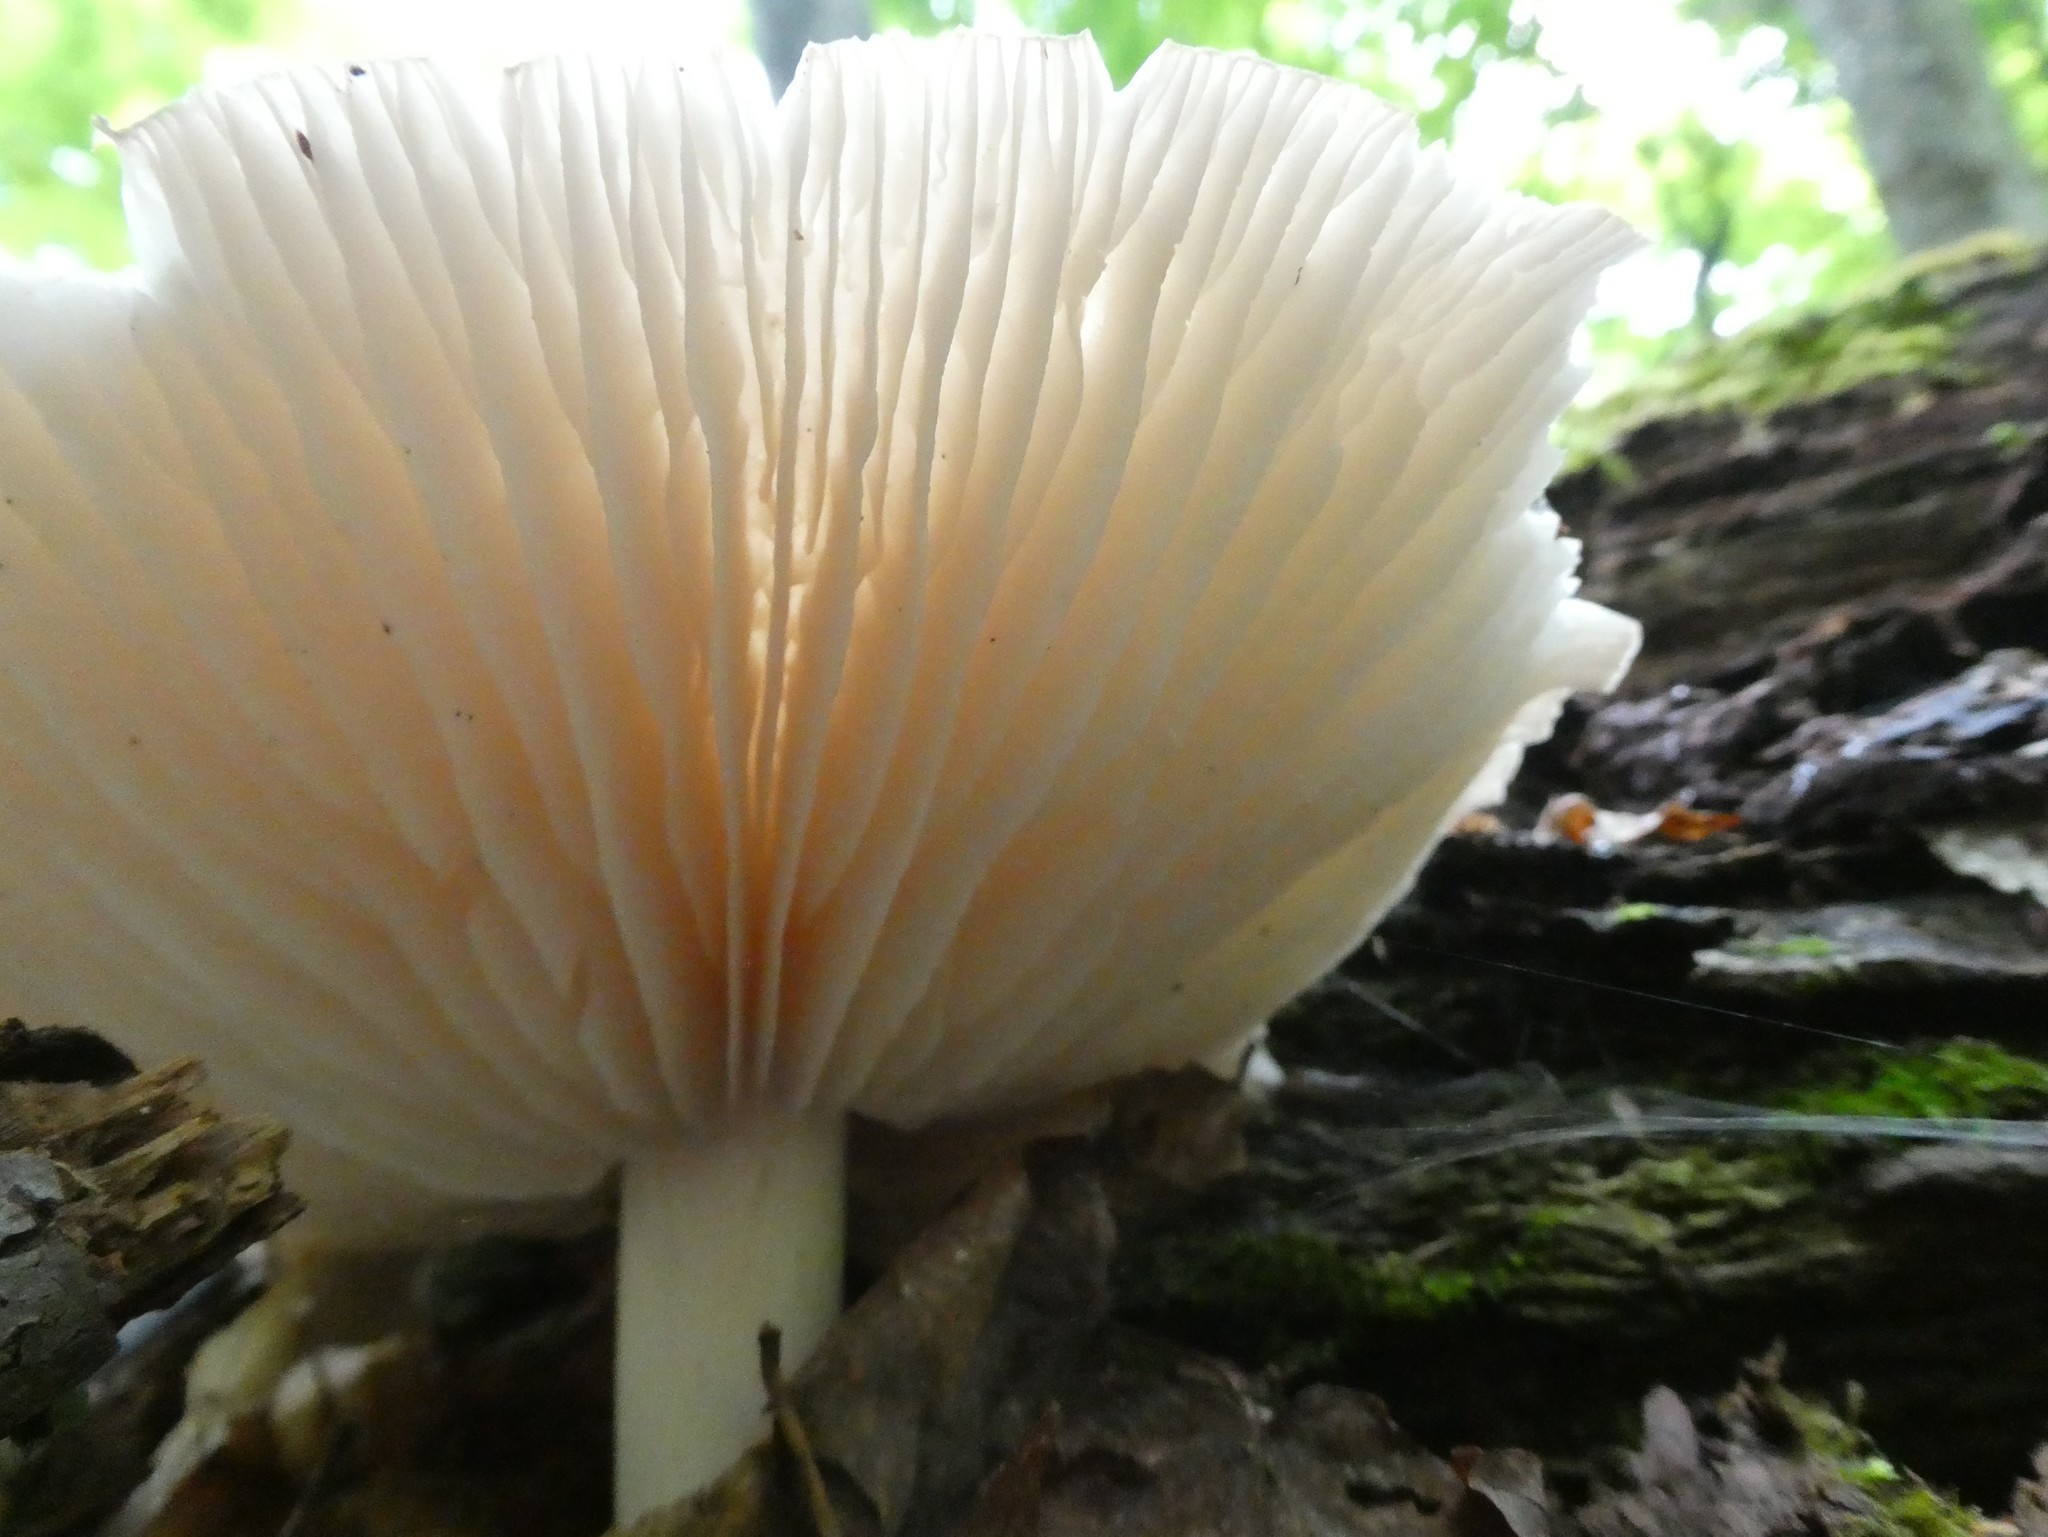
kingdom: Fungi
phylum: Basidiomycota
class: Agaricomycetes
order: Agaricales
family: Tricholomataceae
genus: Megacollybia
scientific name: Megacollybia rodmanii
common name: Eastern american platterful mushroom
